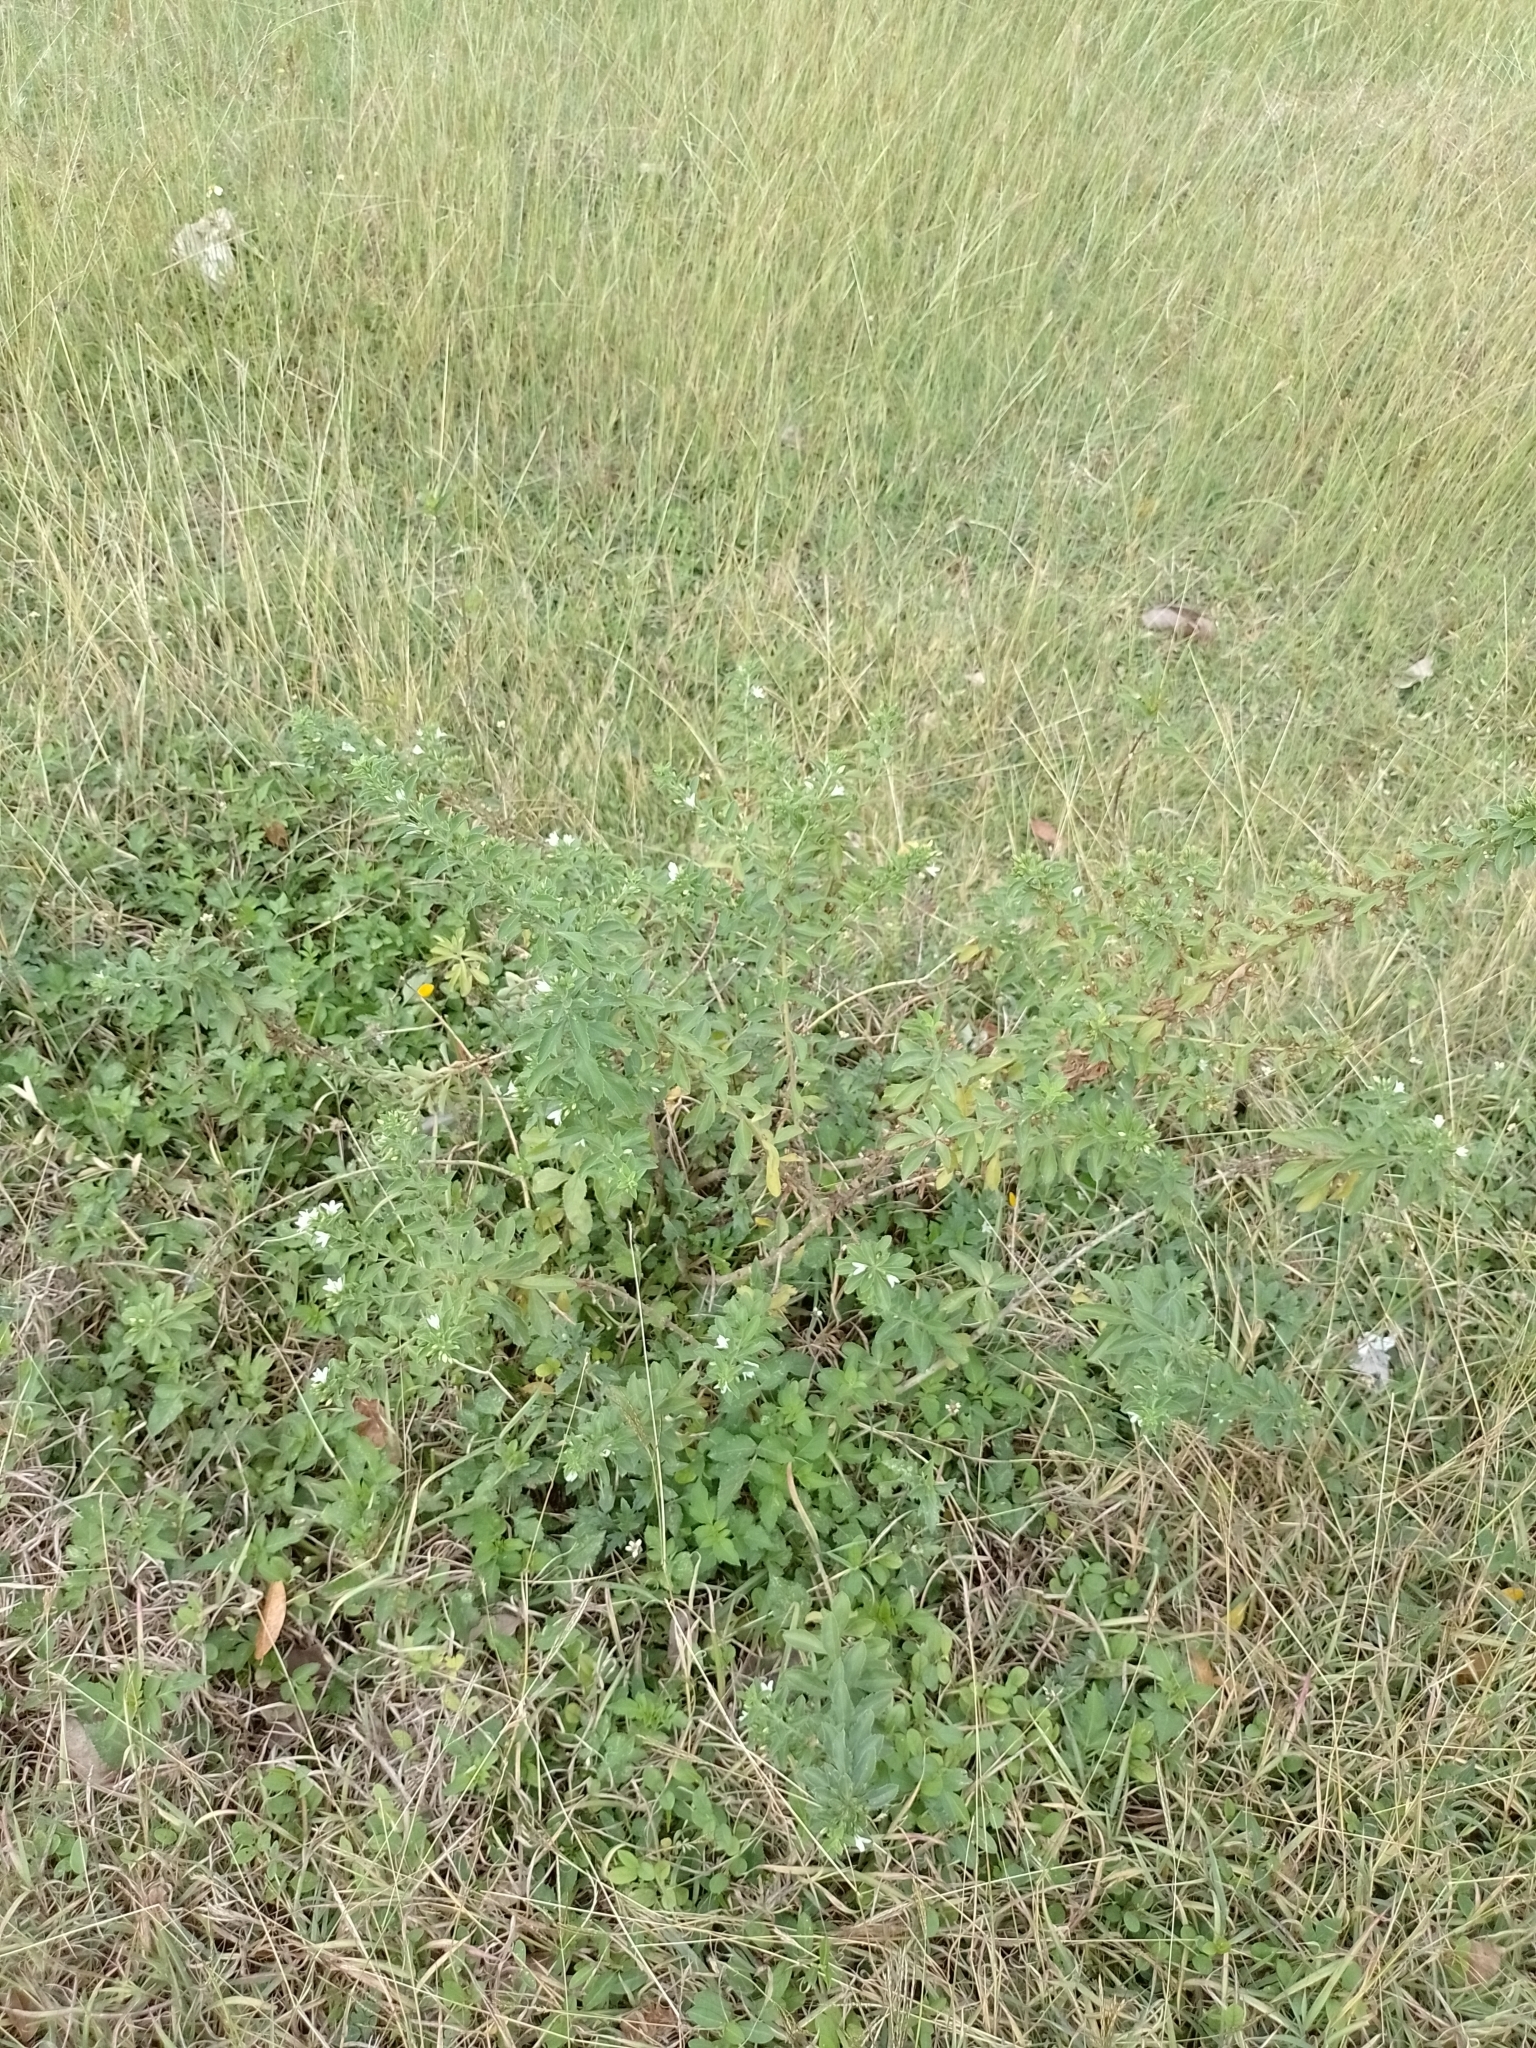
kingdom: Plantae
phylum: Tracheophyta
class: Magnoliopsida
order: Lamiales
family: Scrophulariaceae
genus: Capraria
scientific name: Capraria biflora
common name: Goatweed
